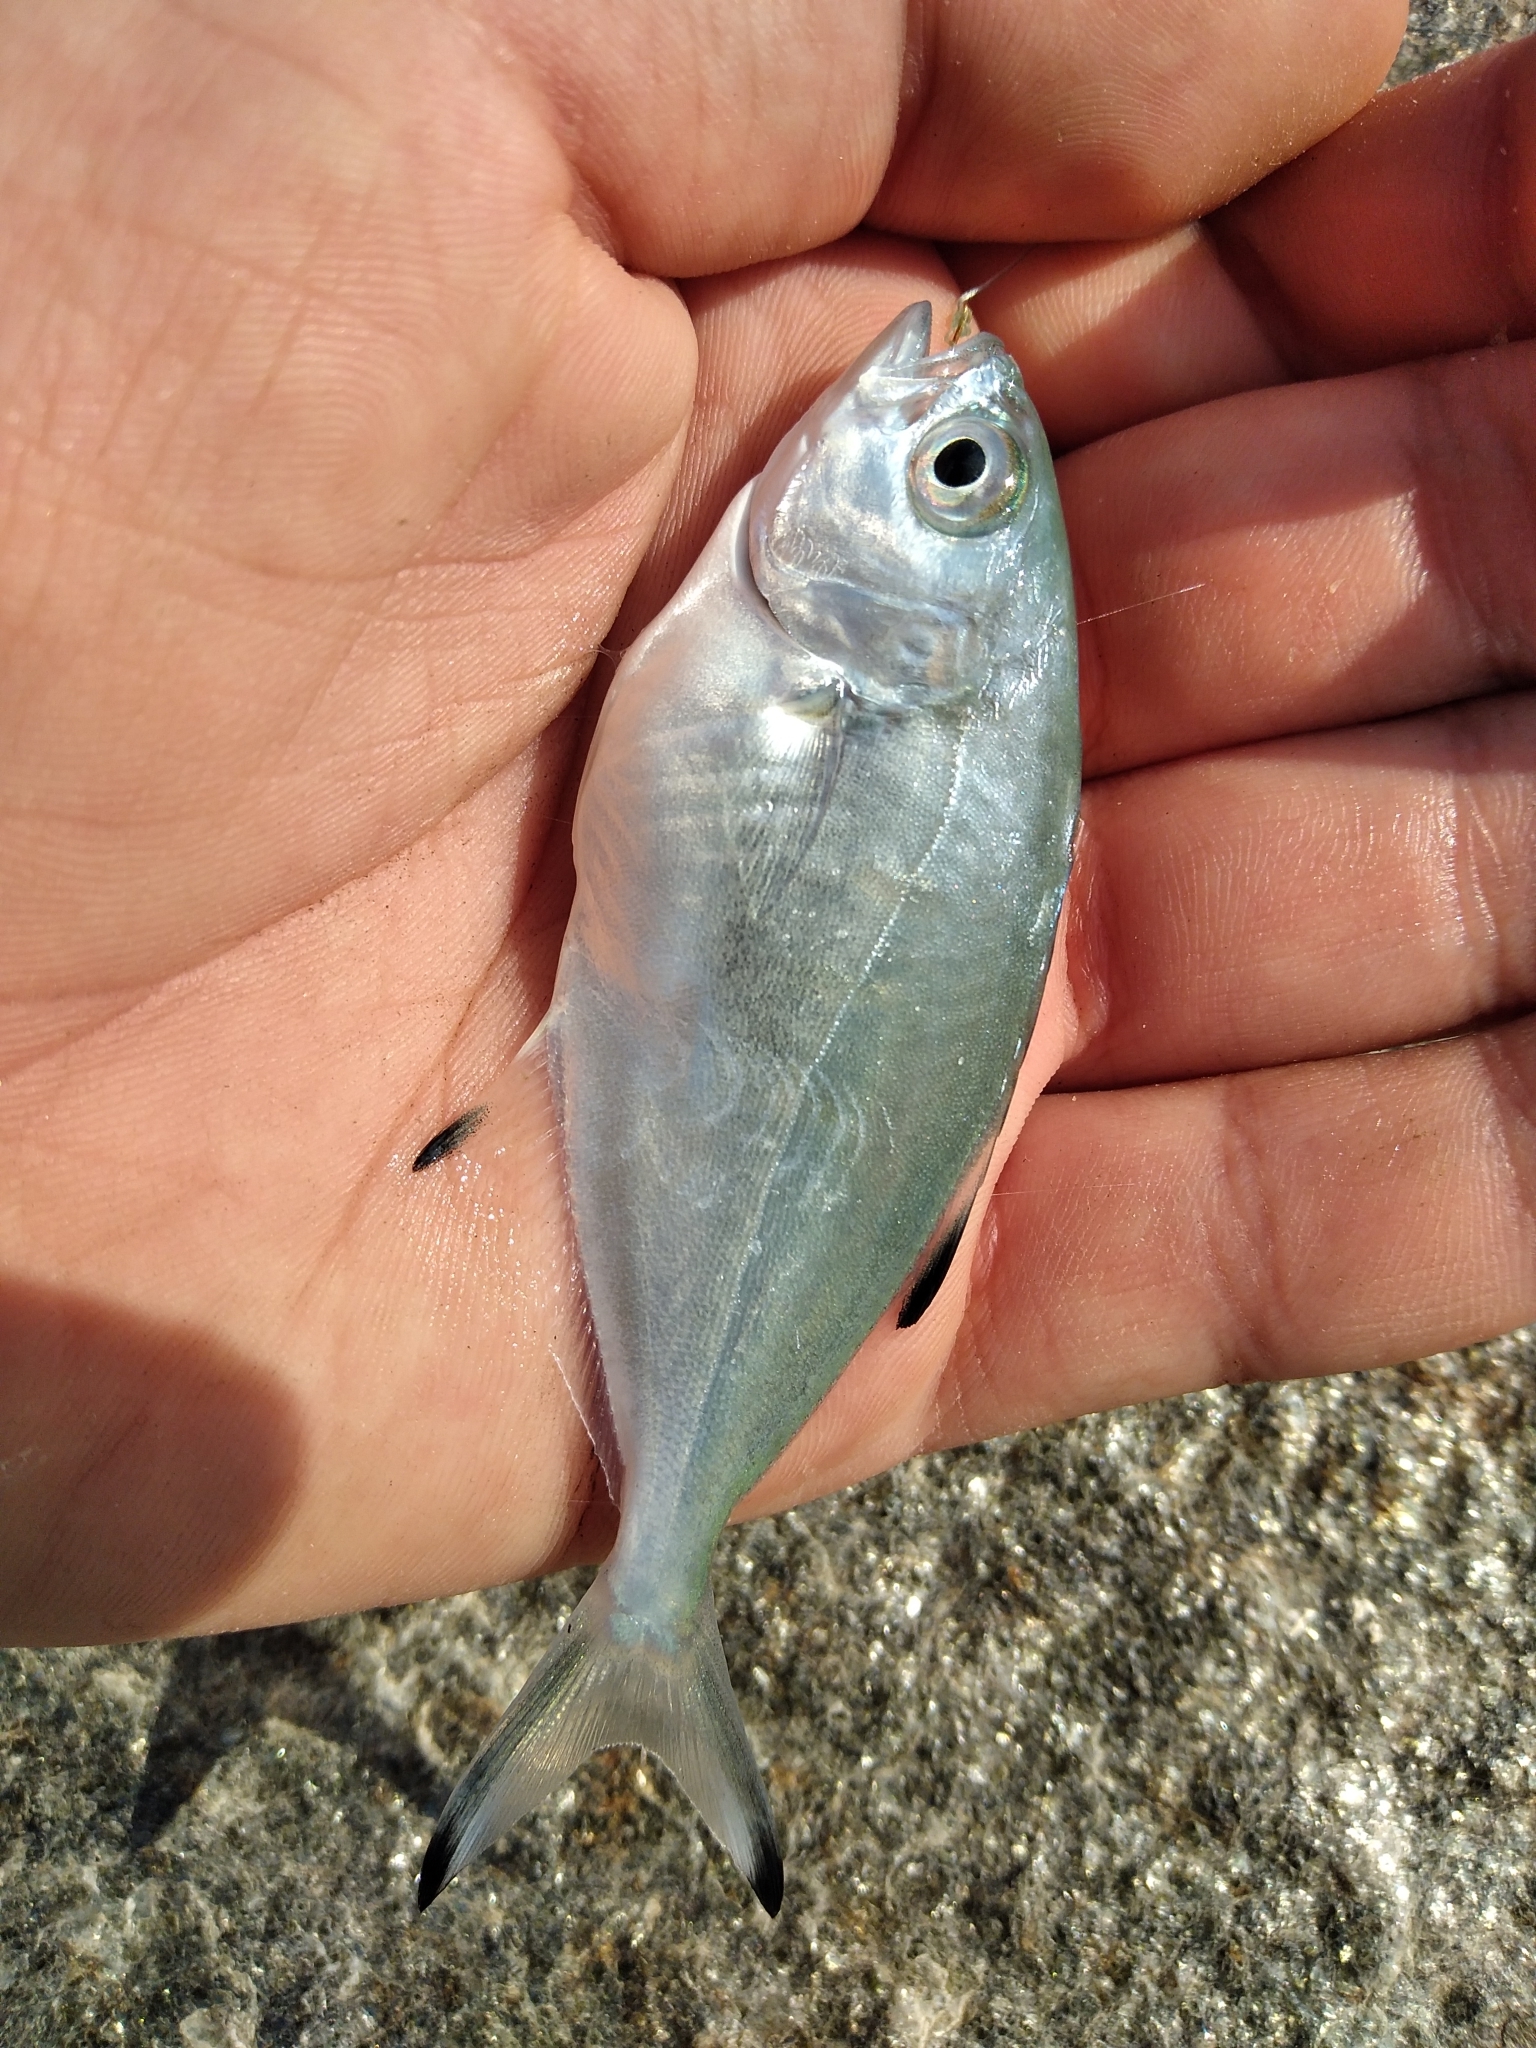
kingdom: Animalia
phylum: Chordata
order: Perciformes
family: Carangidae
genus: Trachinotus
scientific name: Trachinotus ovatus
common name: Pompano
